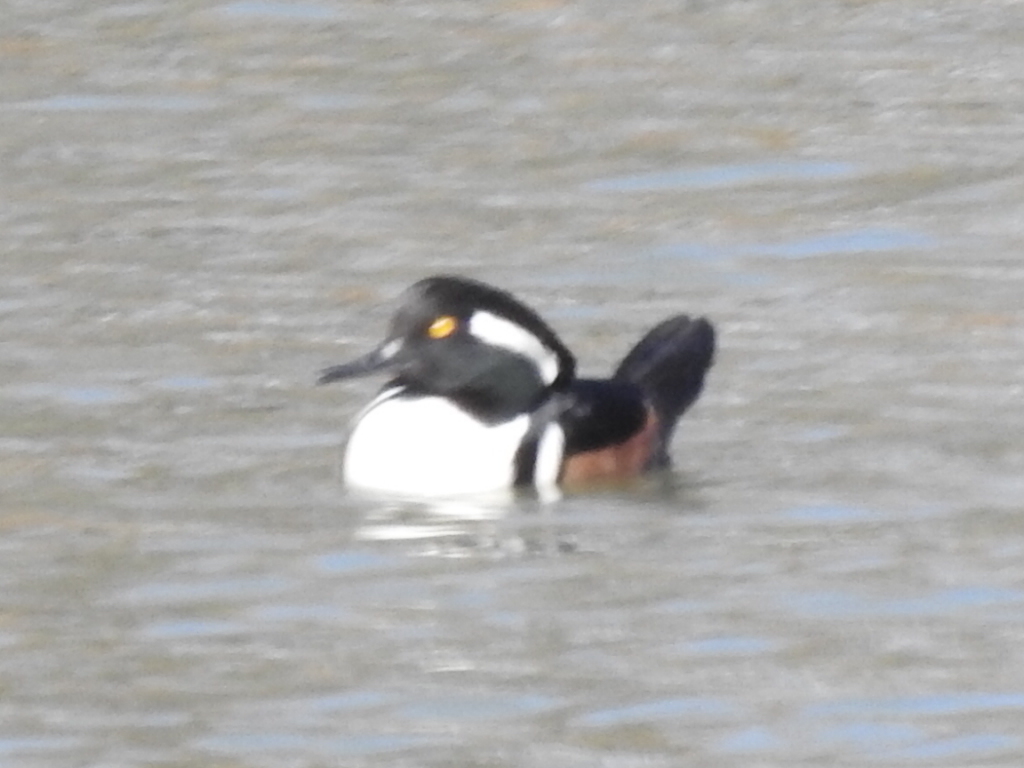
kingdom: Animalia
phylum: Chordata
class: Aves
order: Anseriformes
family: Anatidae
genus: Lophodytes
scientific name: Lophodytes cucullatus
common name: Hooded merganser
